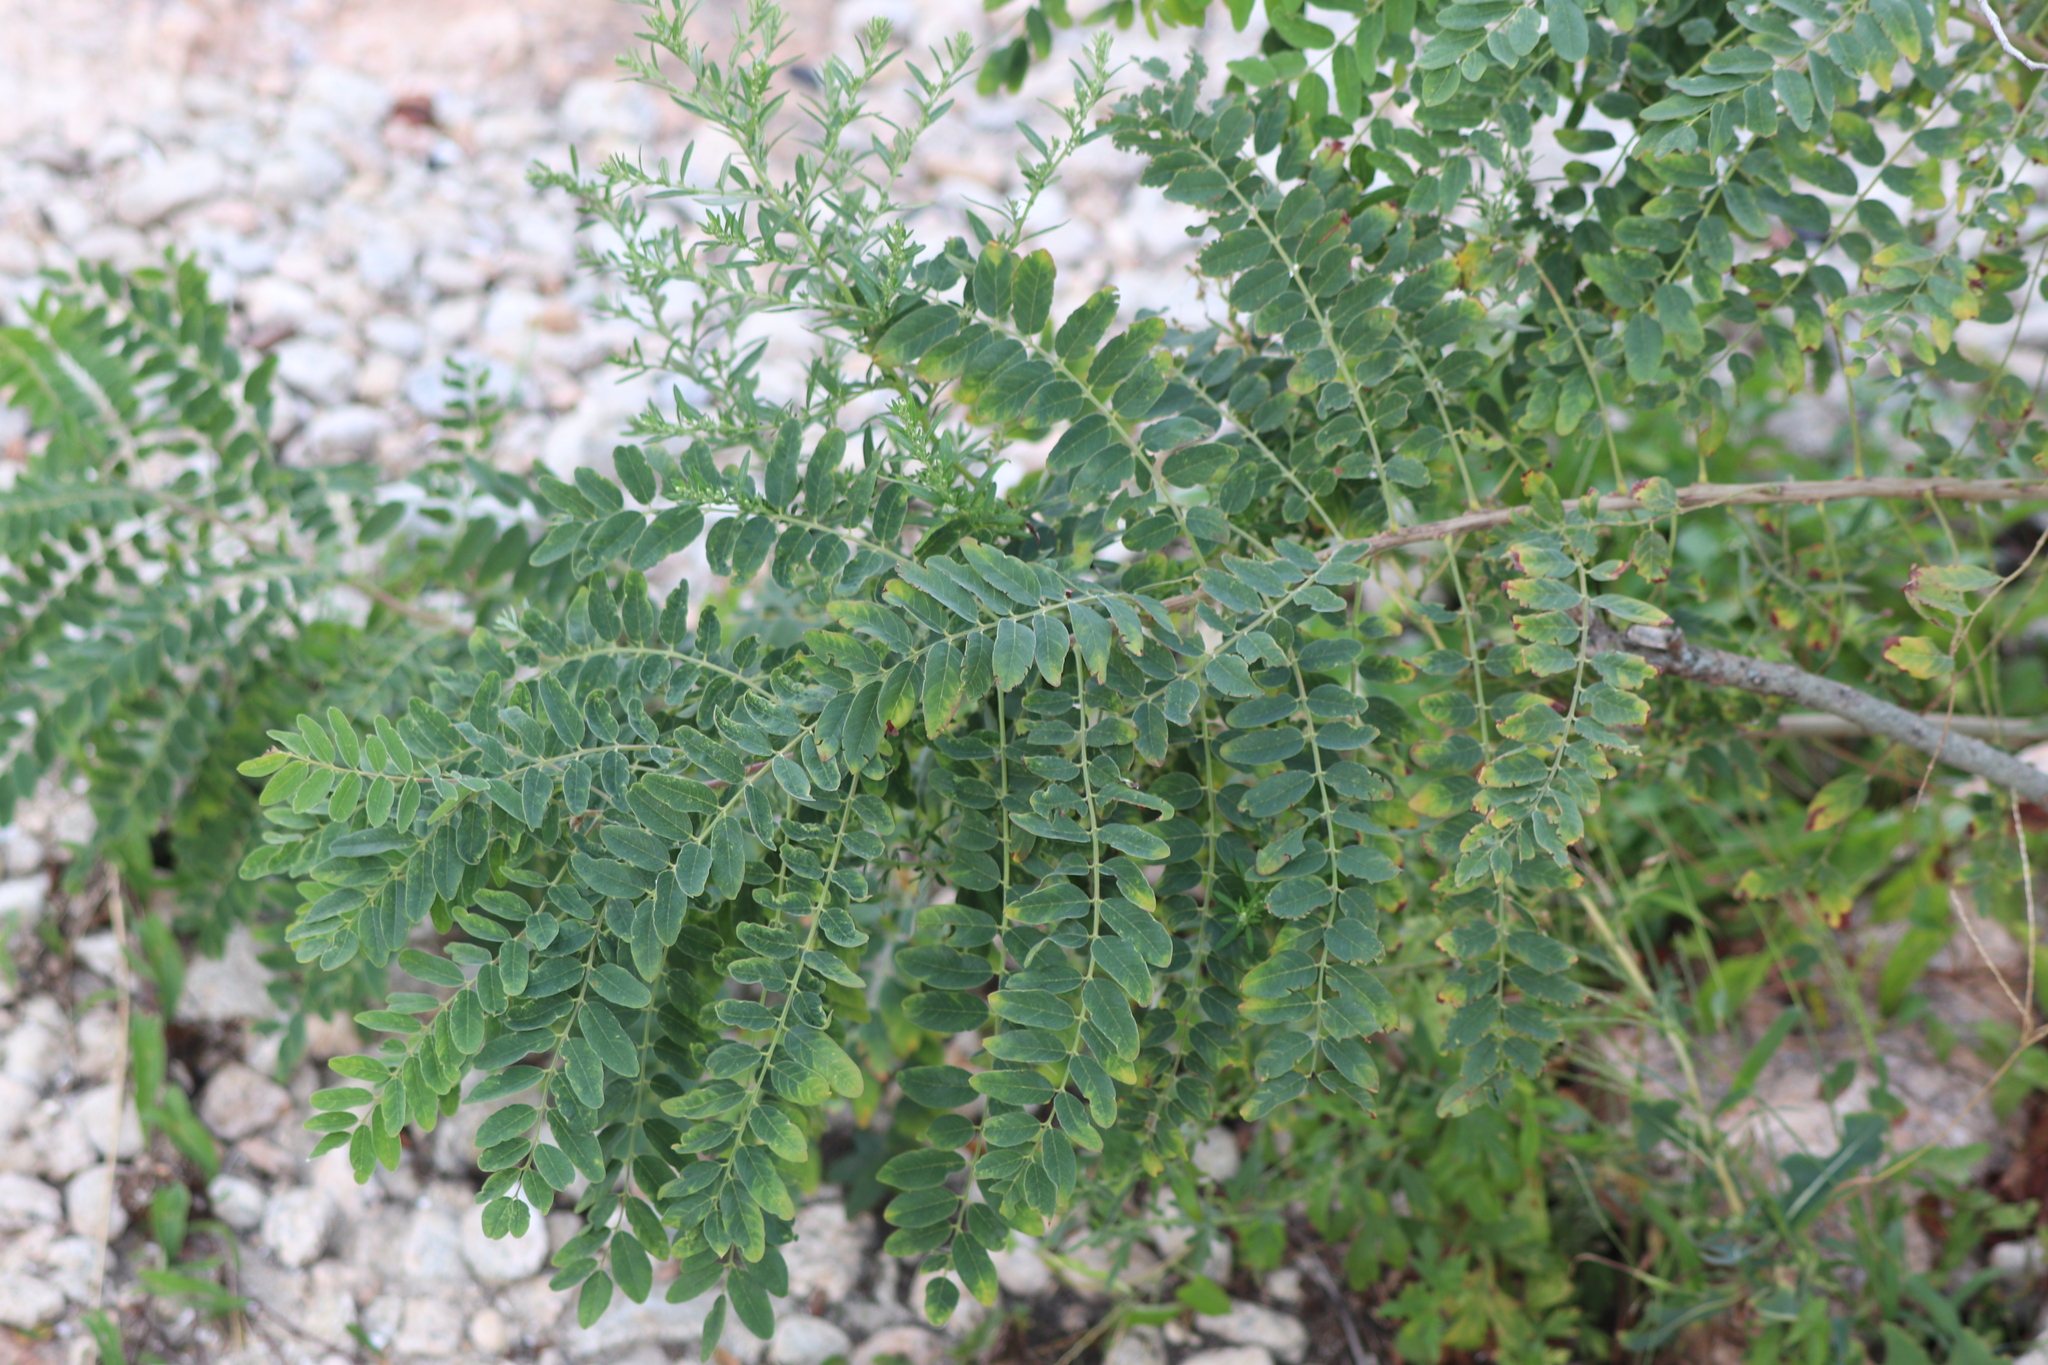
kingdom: Plantae
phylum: Tracheophyta
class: Magnoliopsida
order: Fabales
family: Fabaceae
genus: Amorpha
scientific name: Amorpha fruticosa
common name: False indigo
